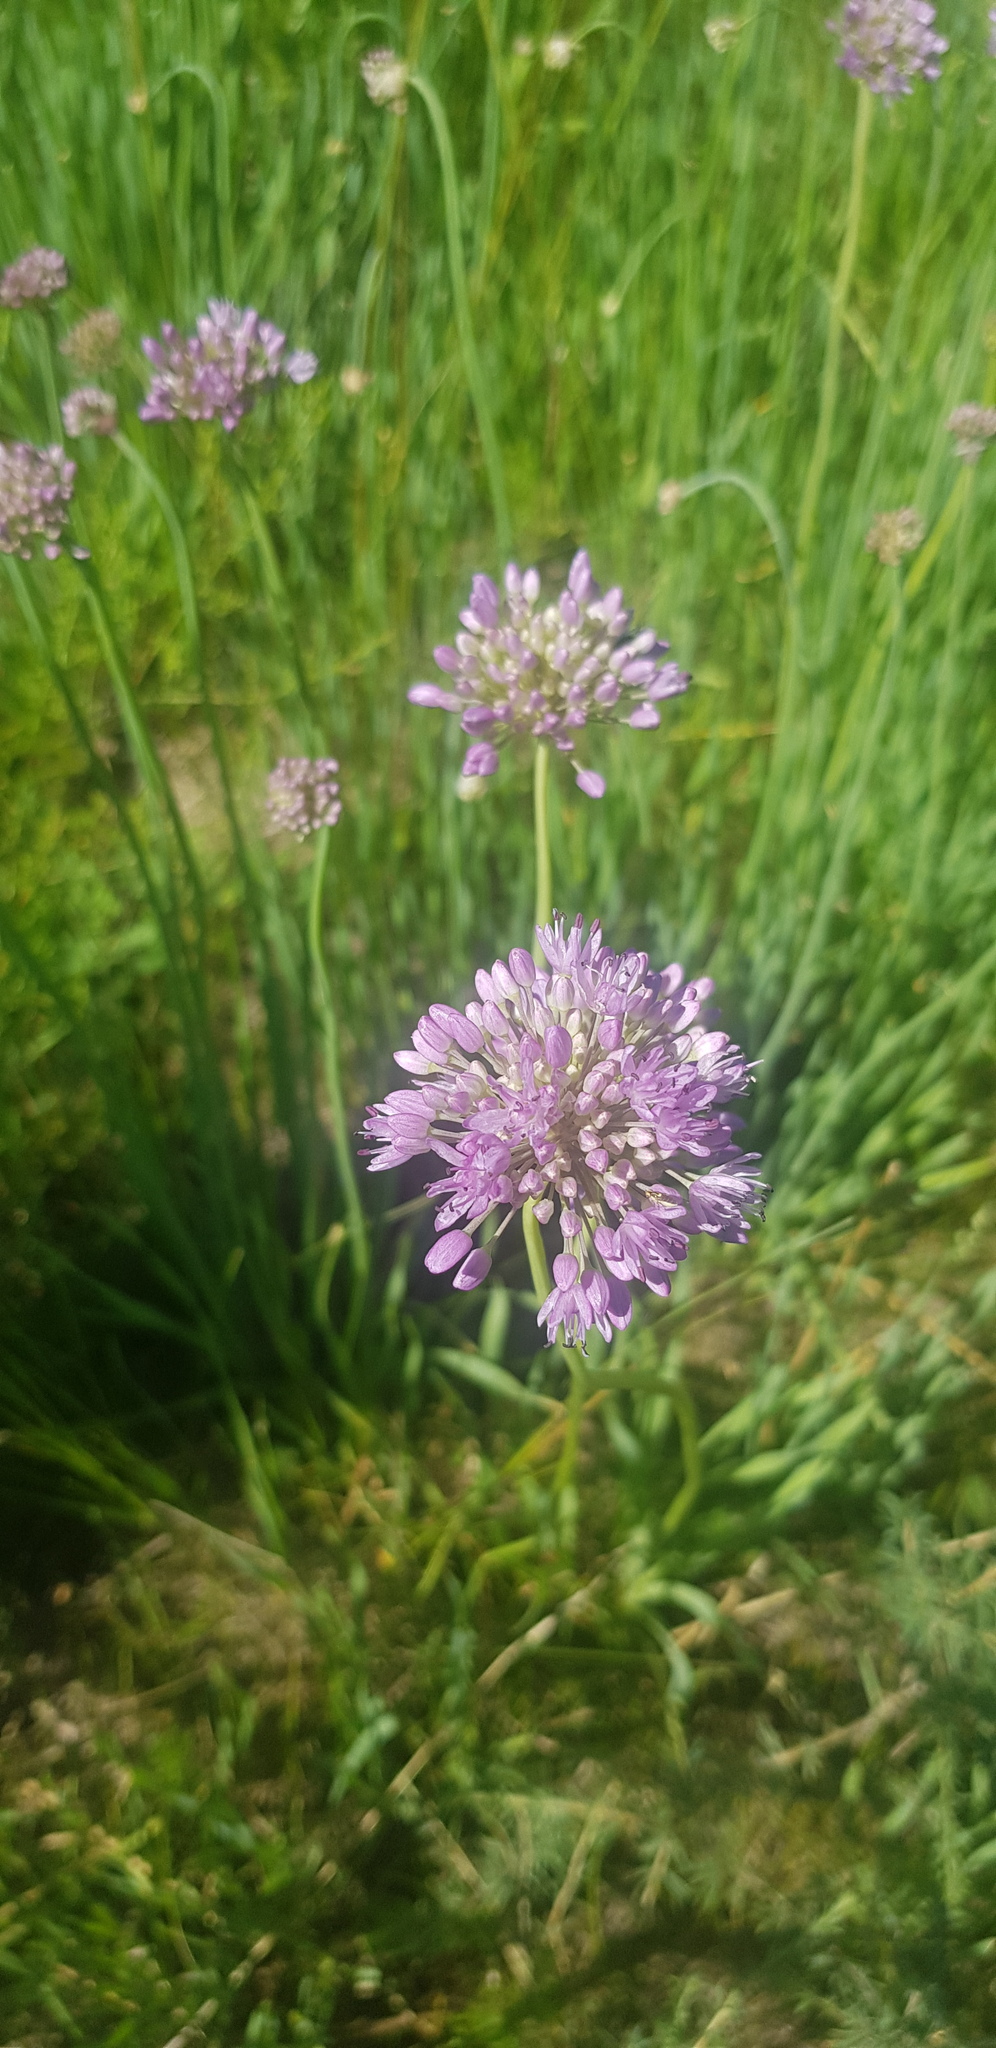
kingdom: Plantae
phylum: Tracheophyta
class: Liliopsida
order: Asparagales
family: Amaryllidaceae
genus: Allium
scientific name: Allium senescens
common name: German garlic
